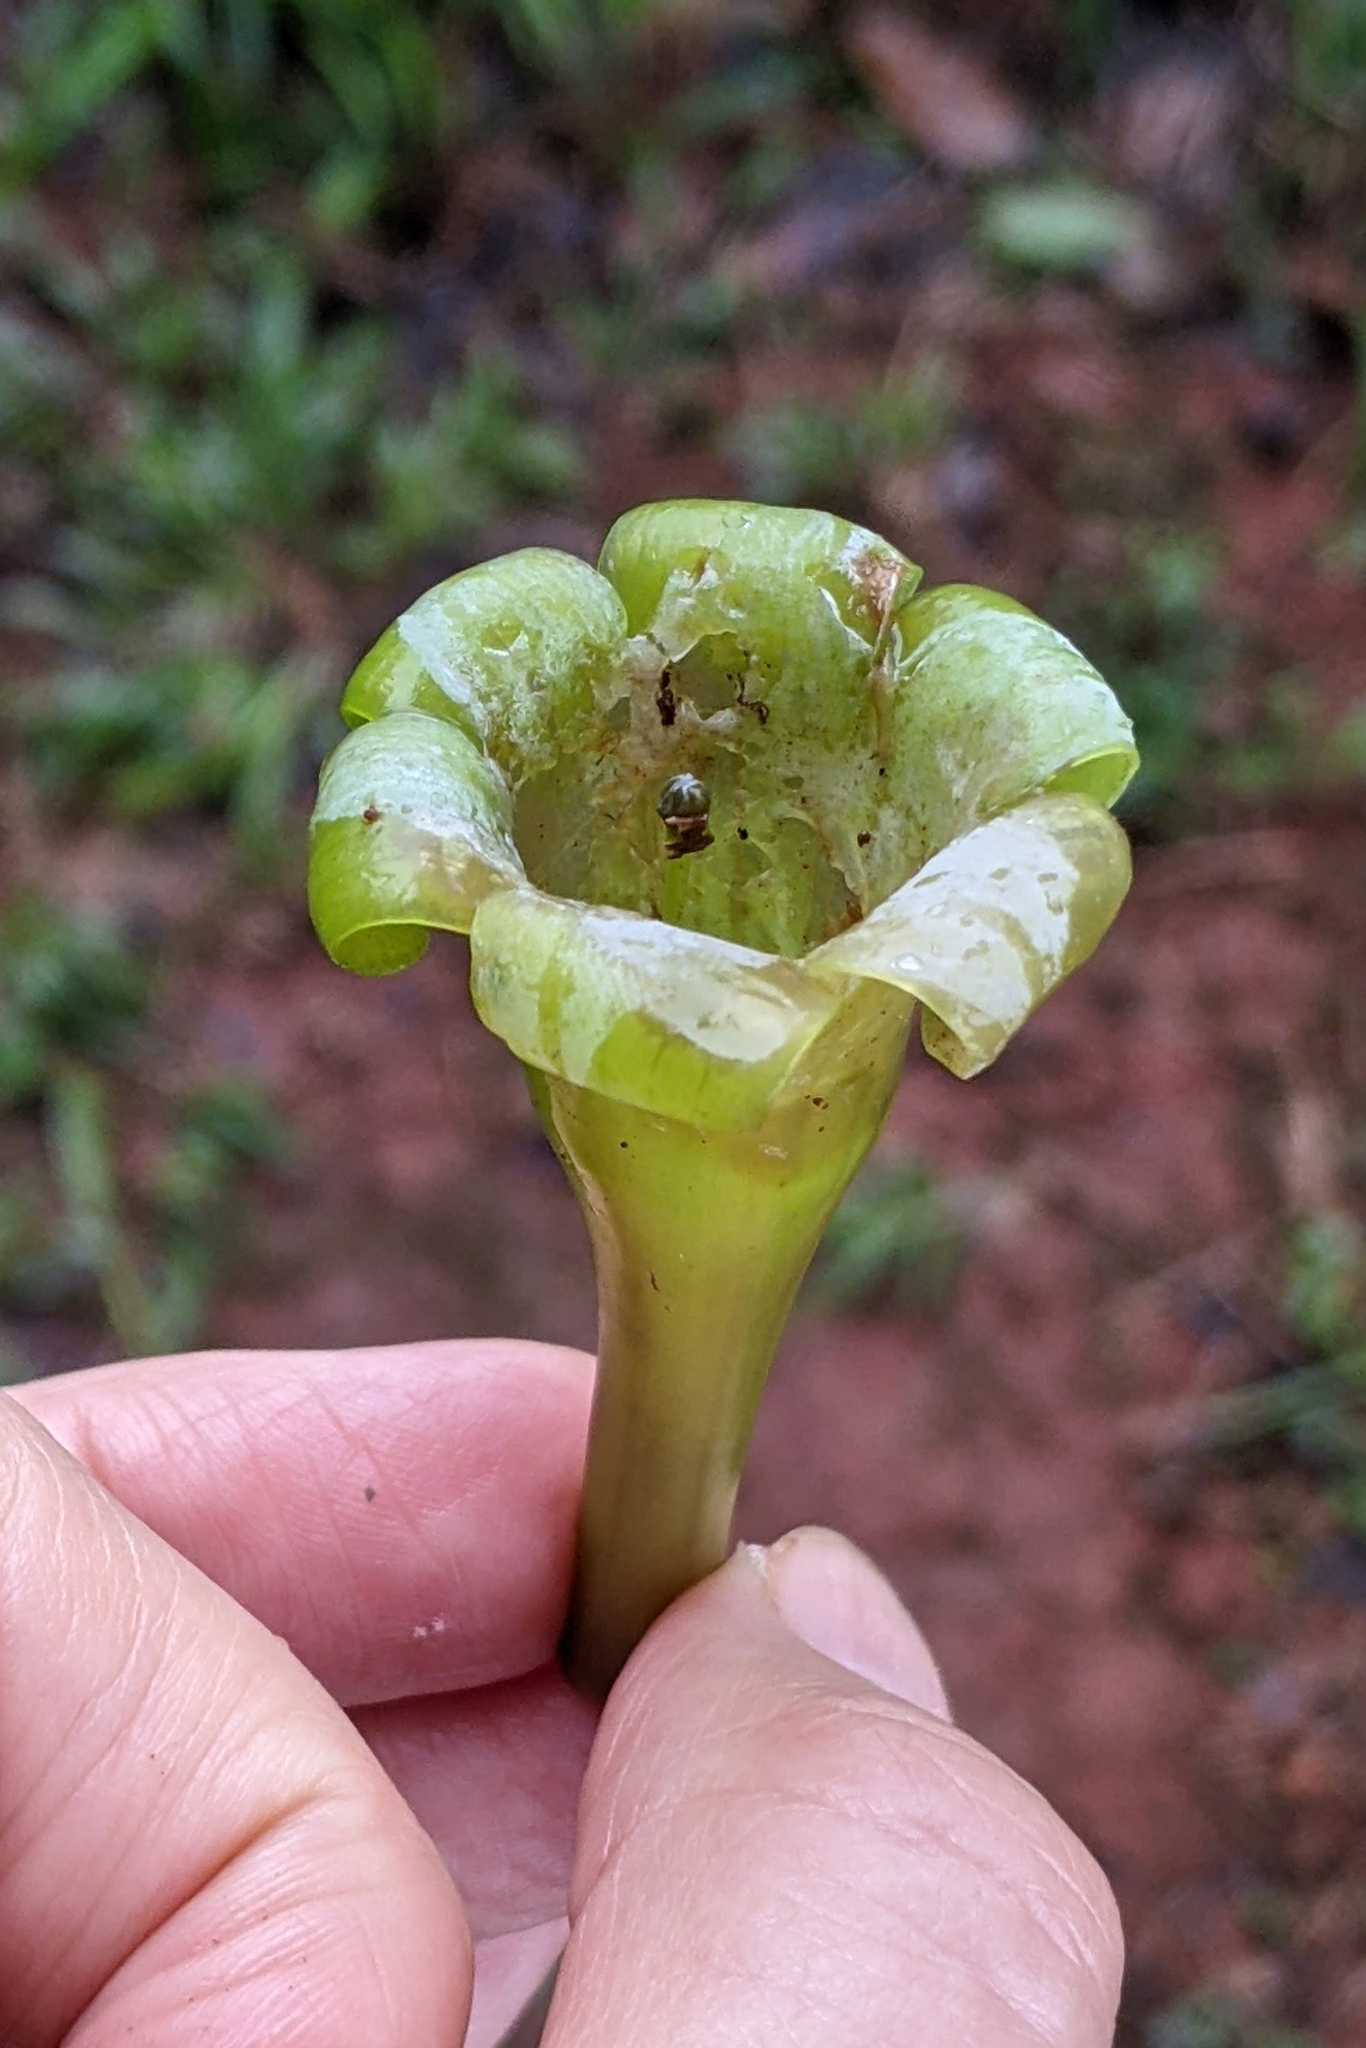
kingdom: Plantae
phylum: Tracheophyta
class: Magnoliopsida
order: Gentianales
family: Rubiaceae
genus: Hillia
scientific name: Hillia illustris
